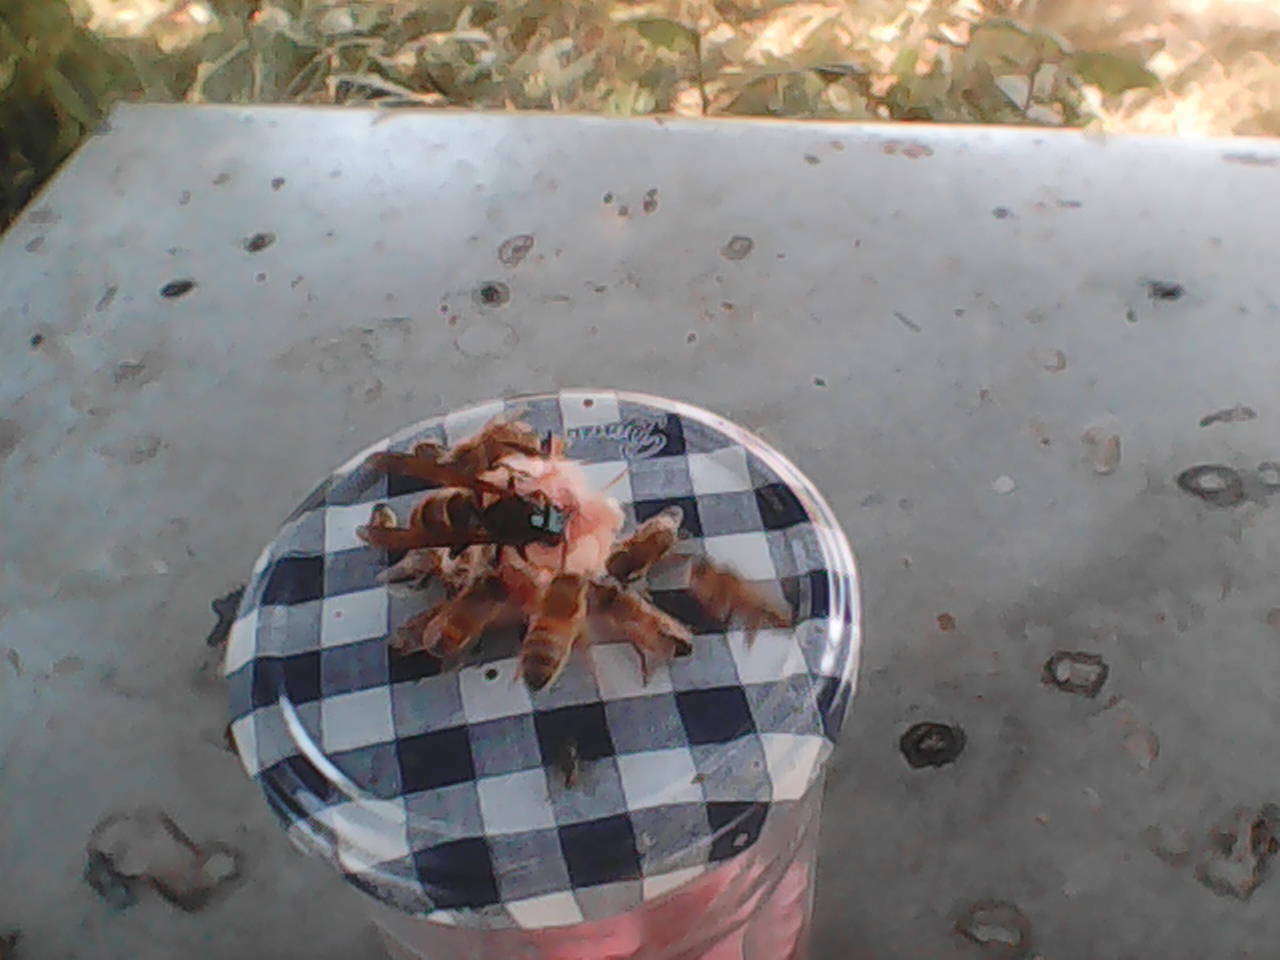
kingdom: Animalia
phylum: Arthropoda
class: Insecta
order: Hymenoptera
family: Vespidae
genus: Vespa
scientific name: Vespa velutina
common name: Asian hornet
